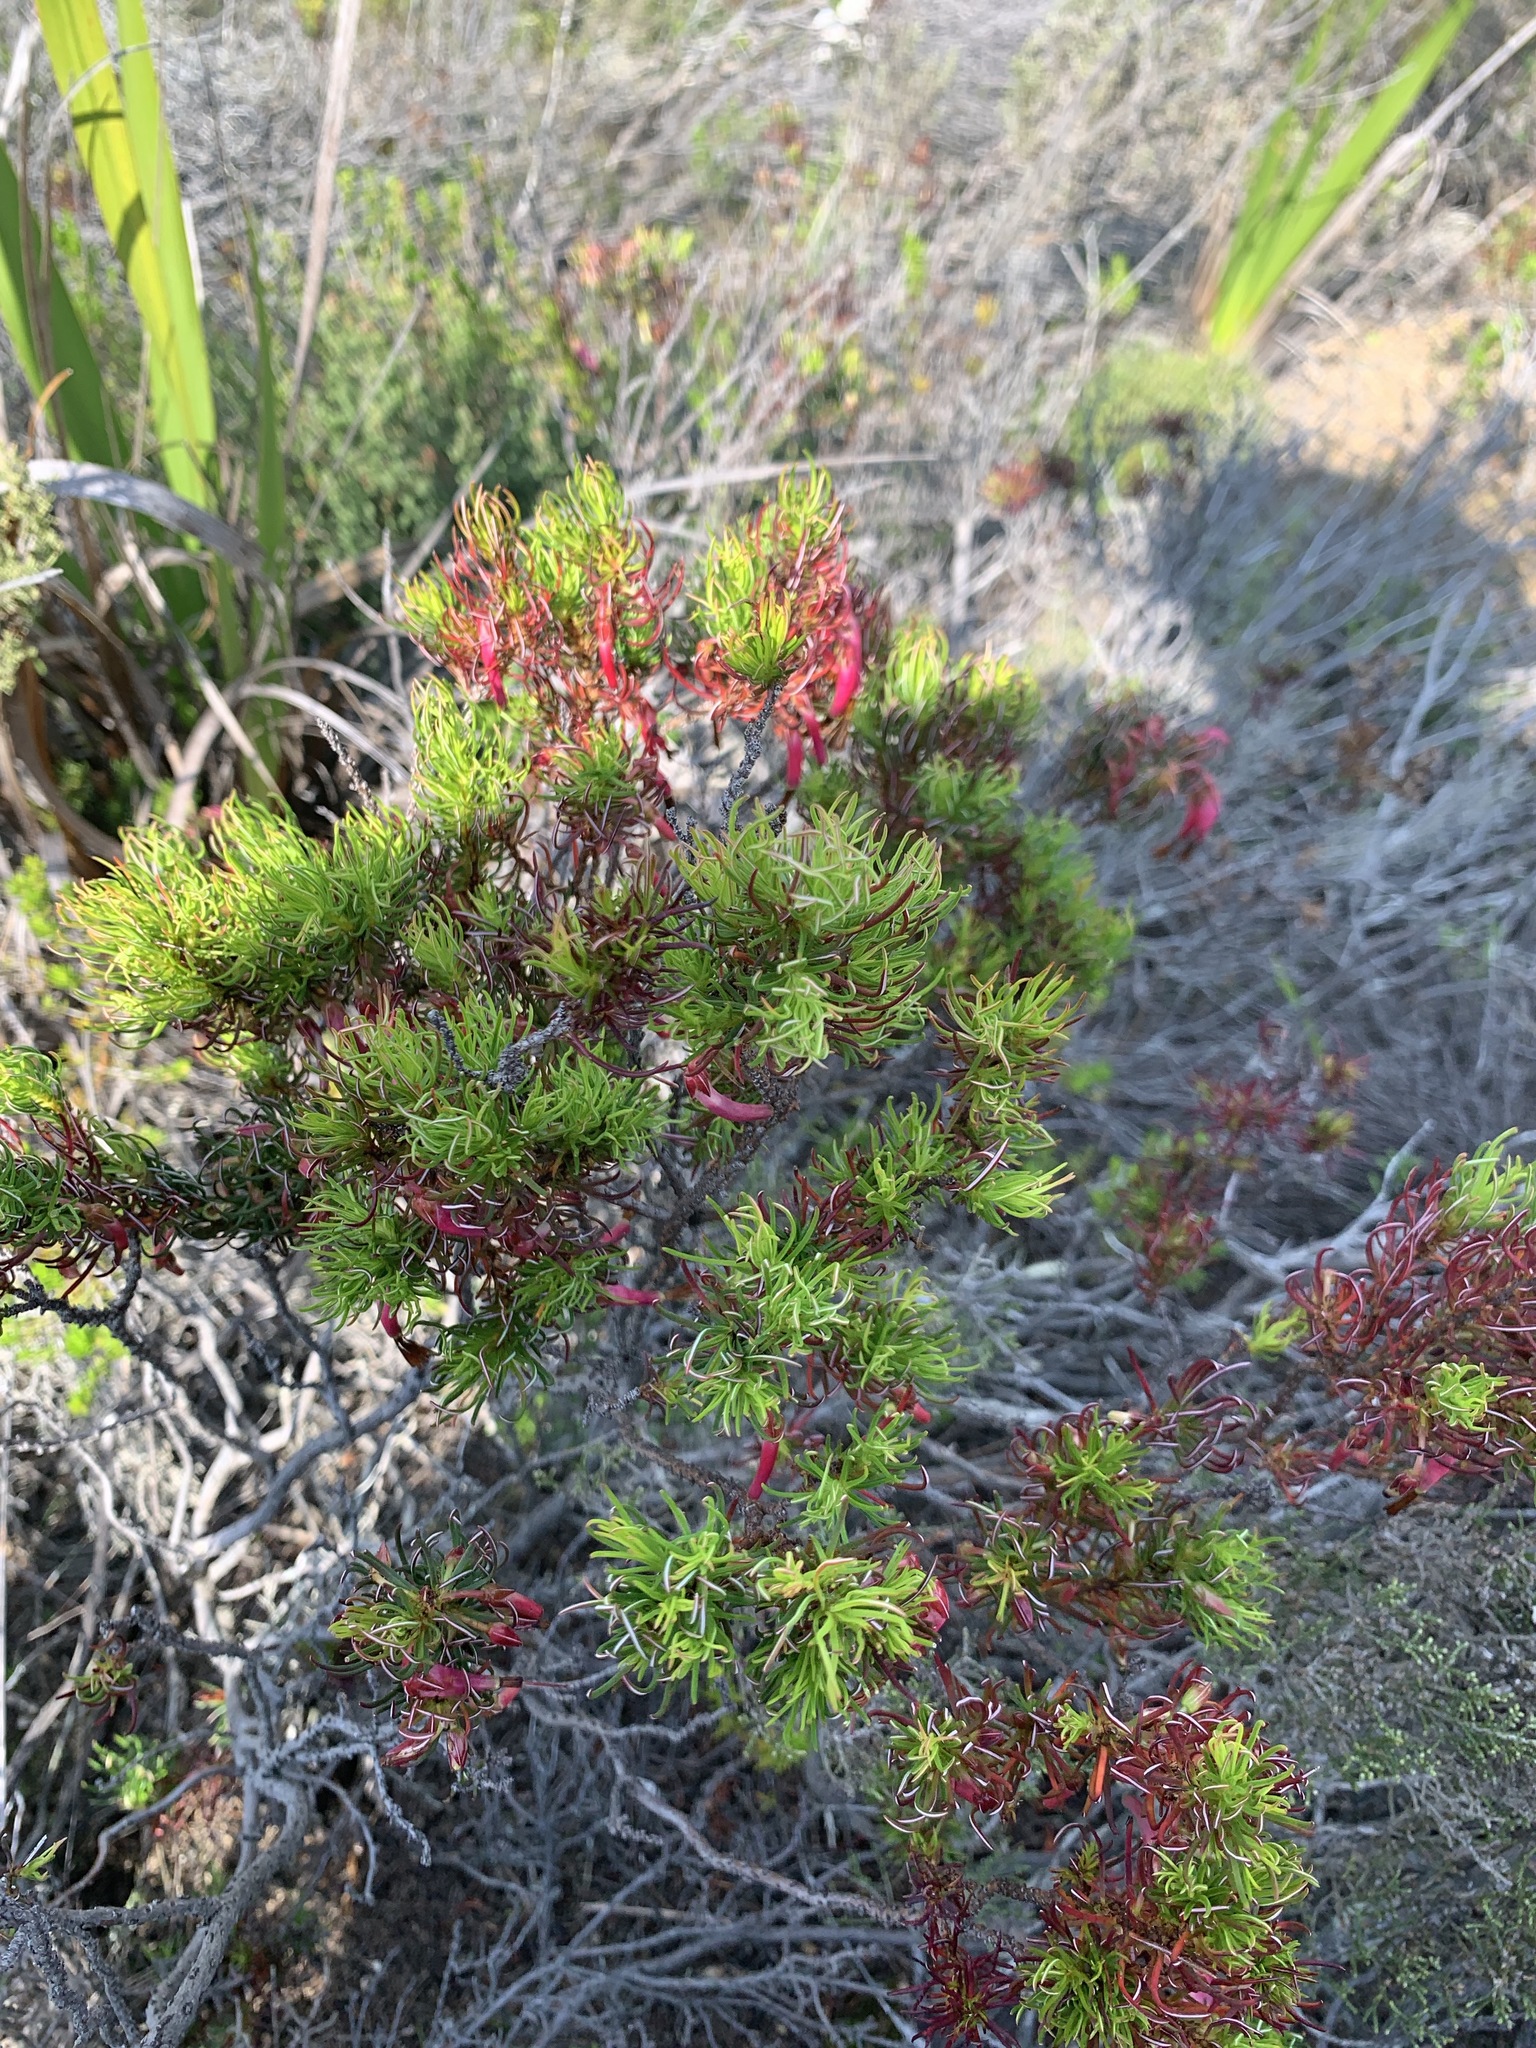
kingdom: Plantae
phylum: Tracheophyta
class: Magnoliopsida
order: Ericales
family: Ericaceae
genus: Erica
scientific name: Erica plukenetii
